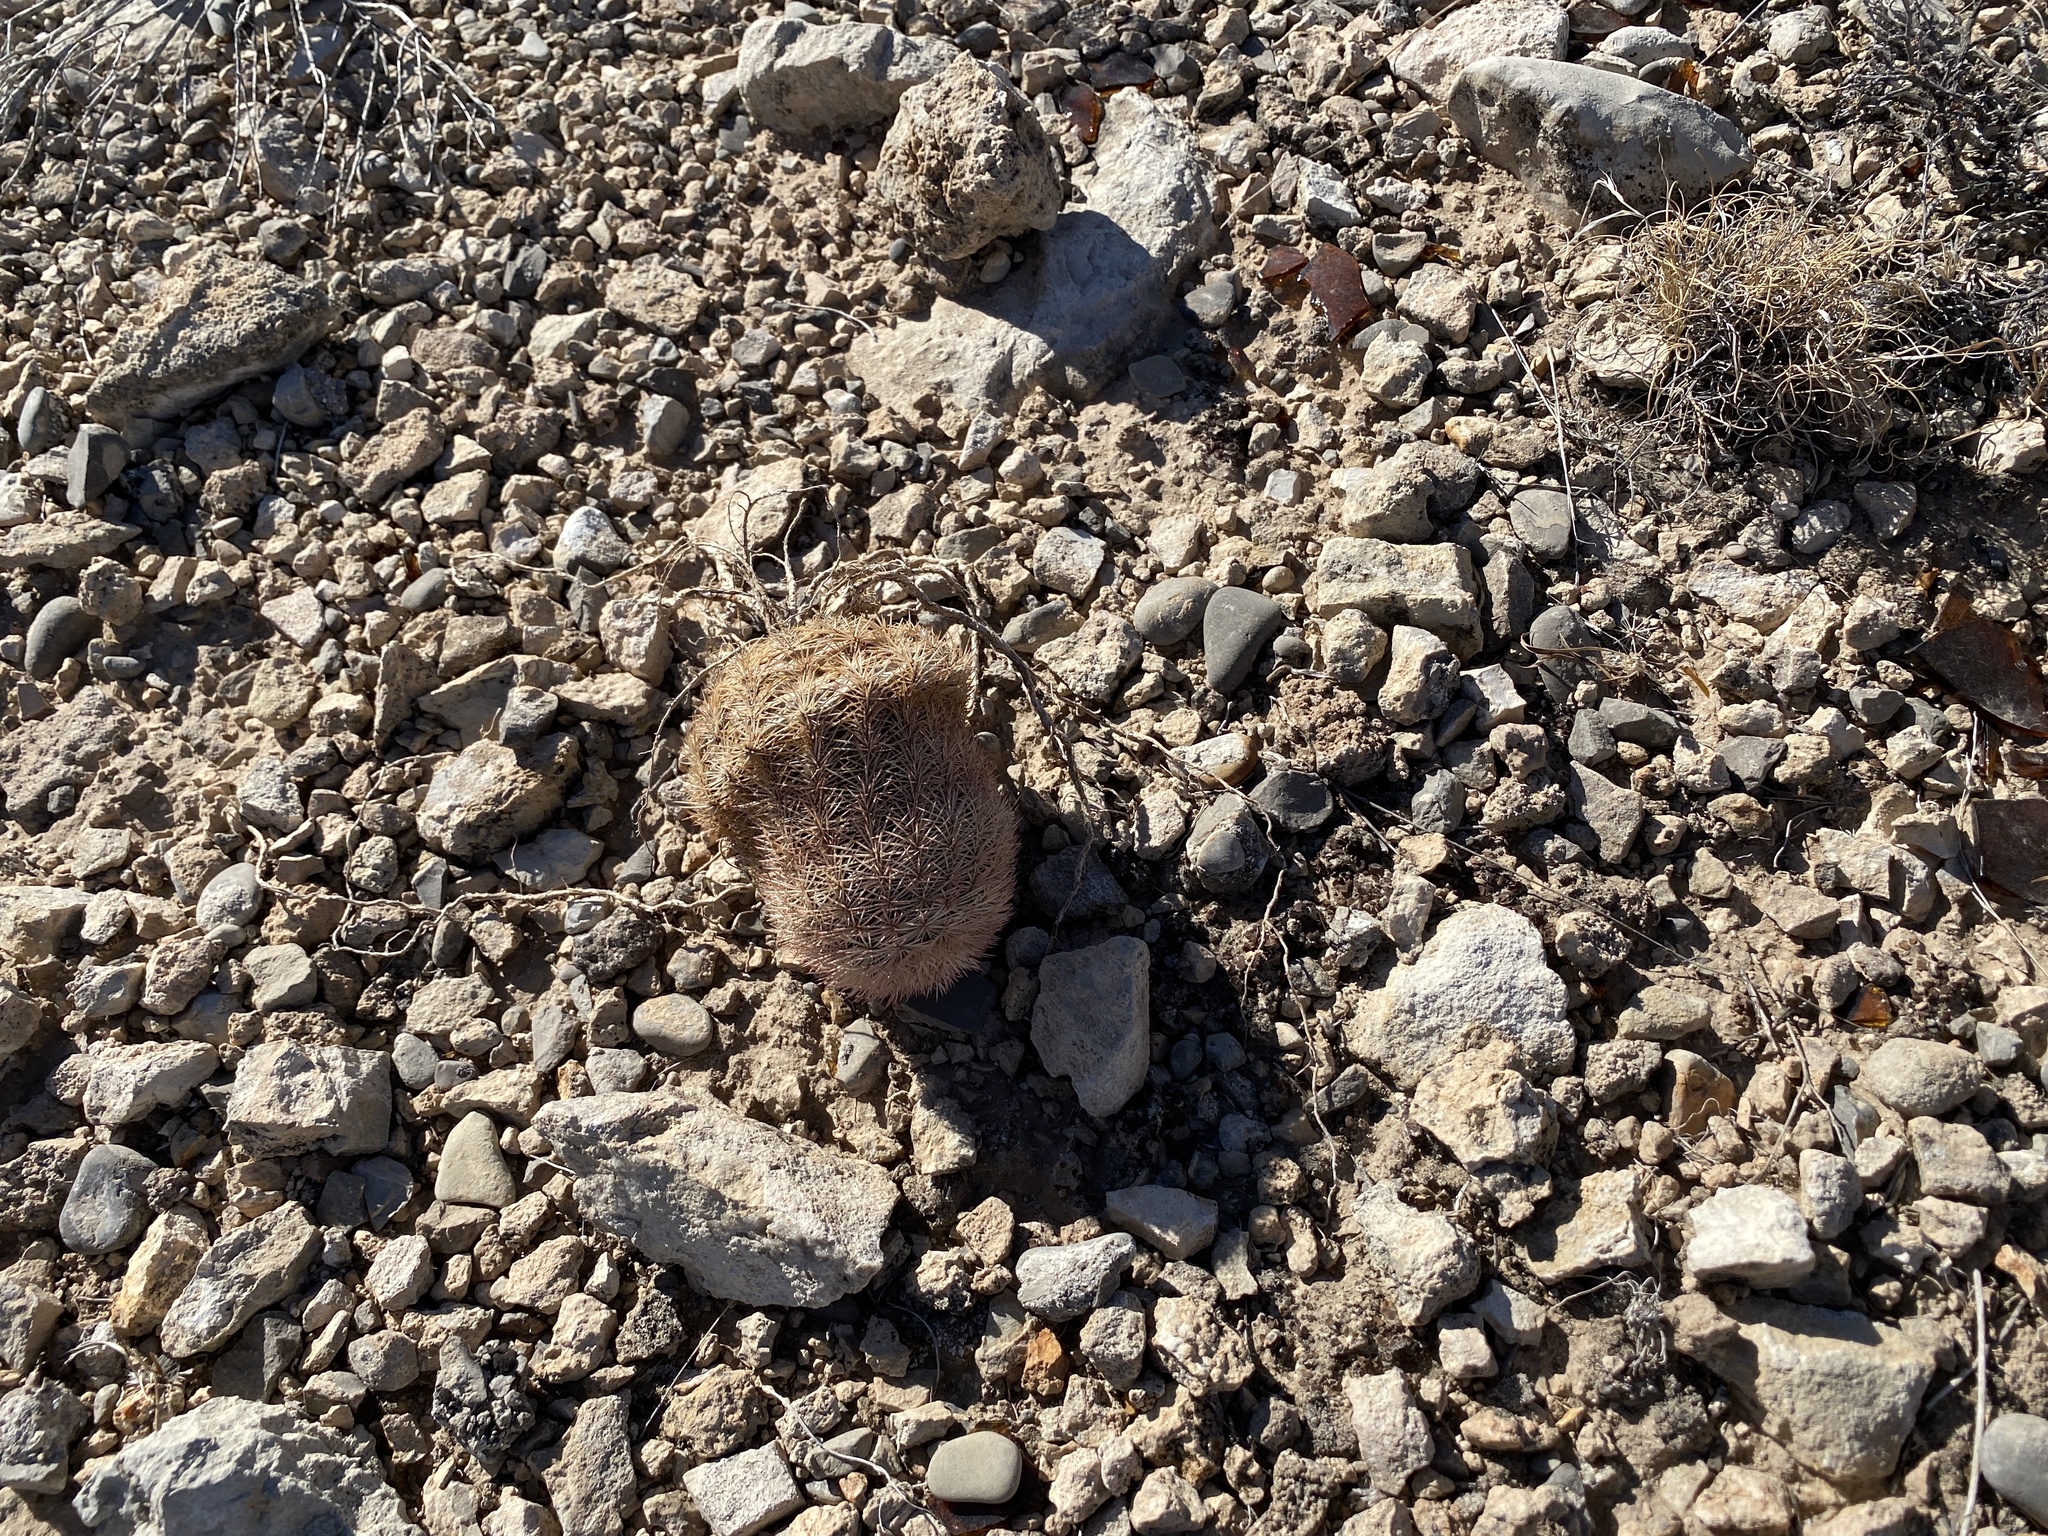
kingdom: Plantae
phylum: Tracheophyta
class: Magnoliopsida
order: Caryophyllales
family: Cactaceae
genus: Echinocereus
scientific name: Echinocereus dasyacanthus
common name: Spiny hedgehog cactus
